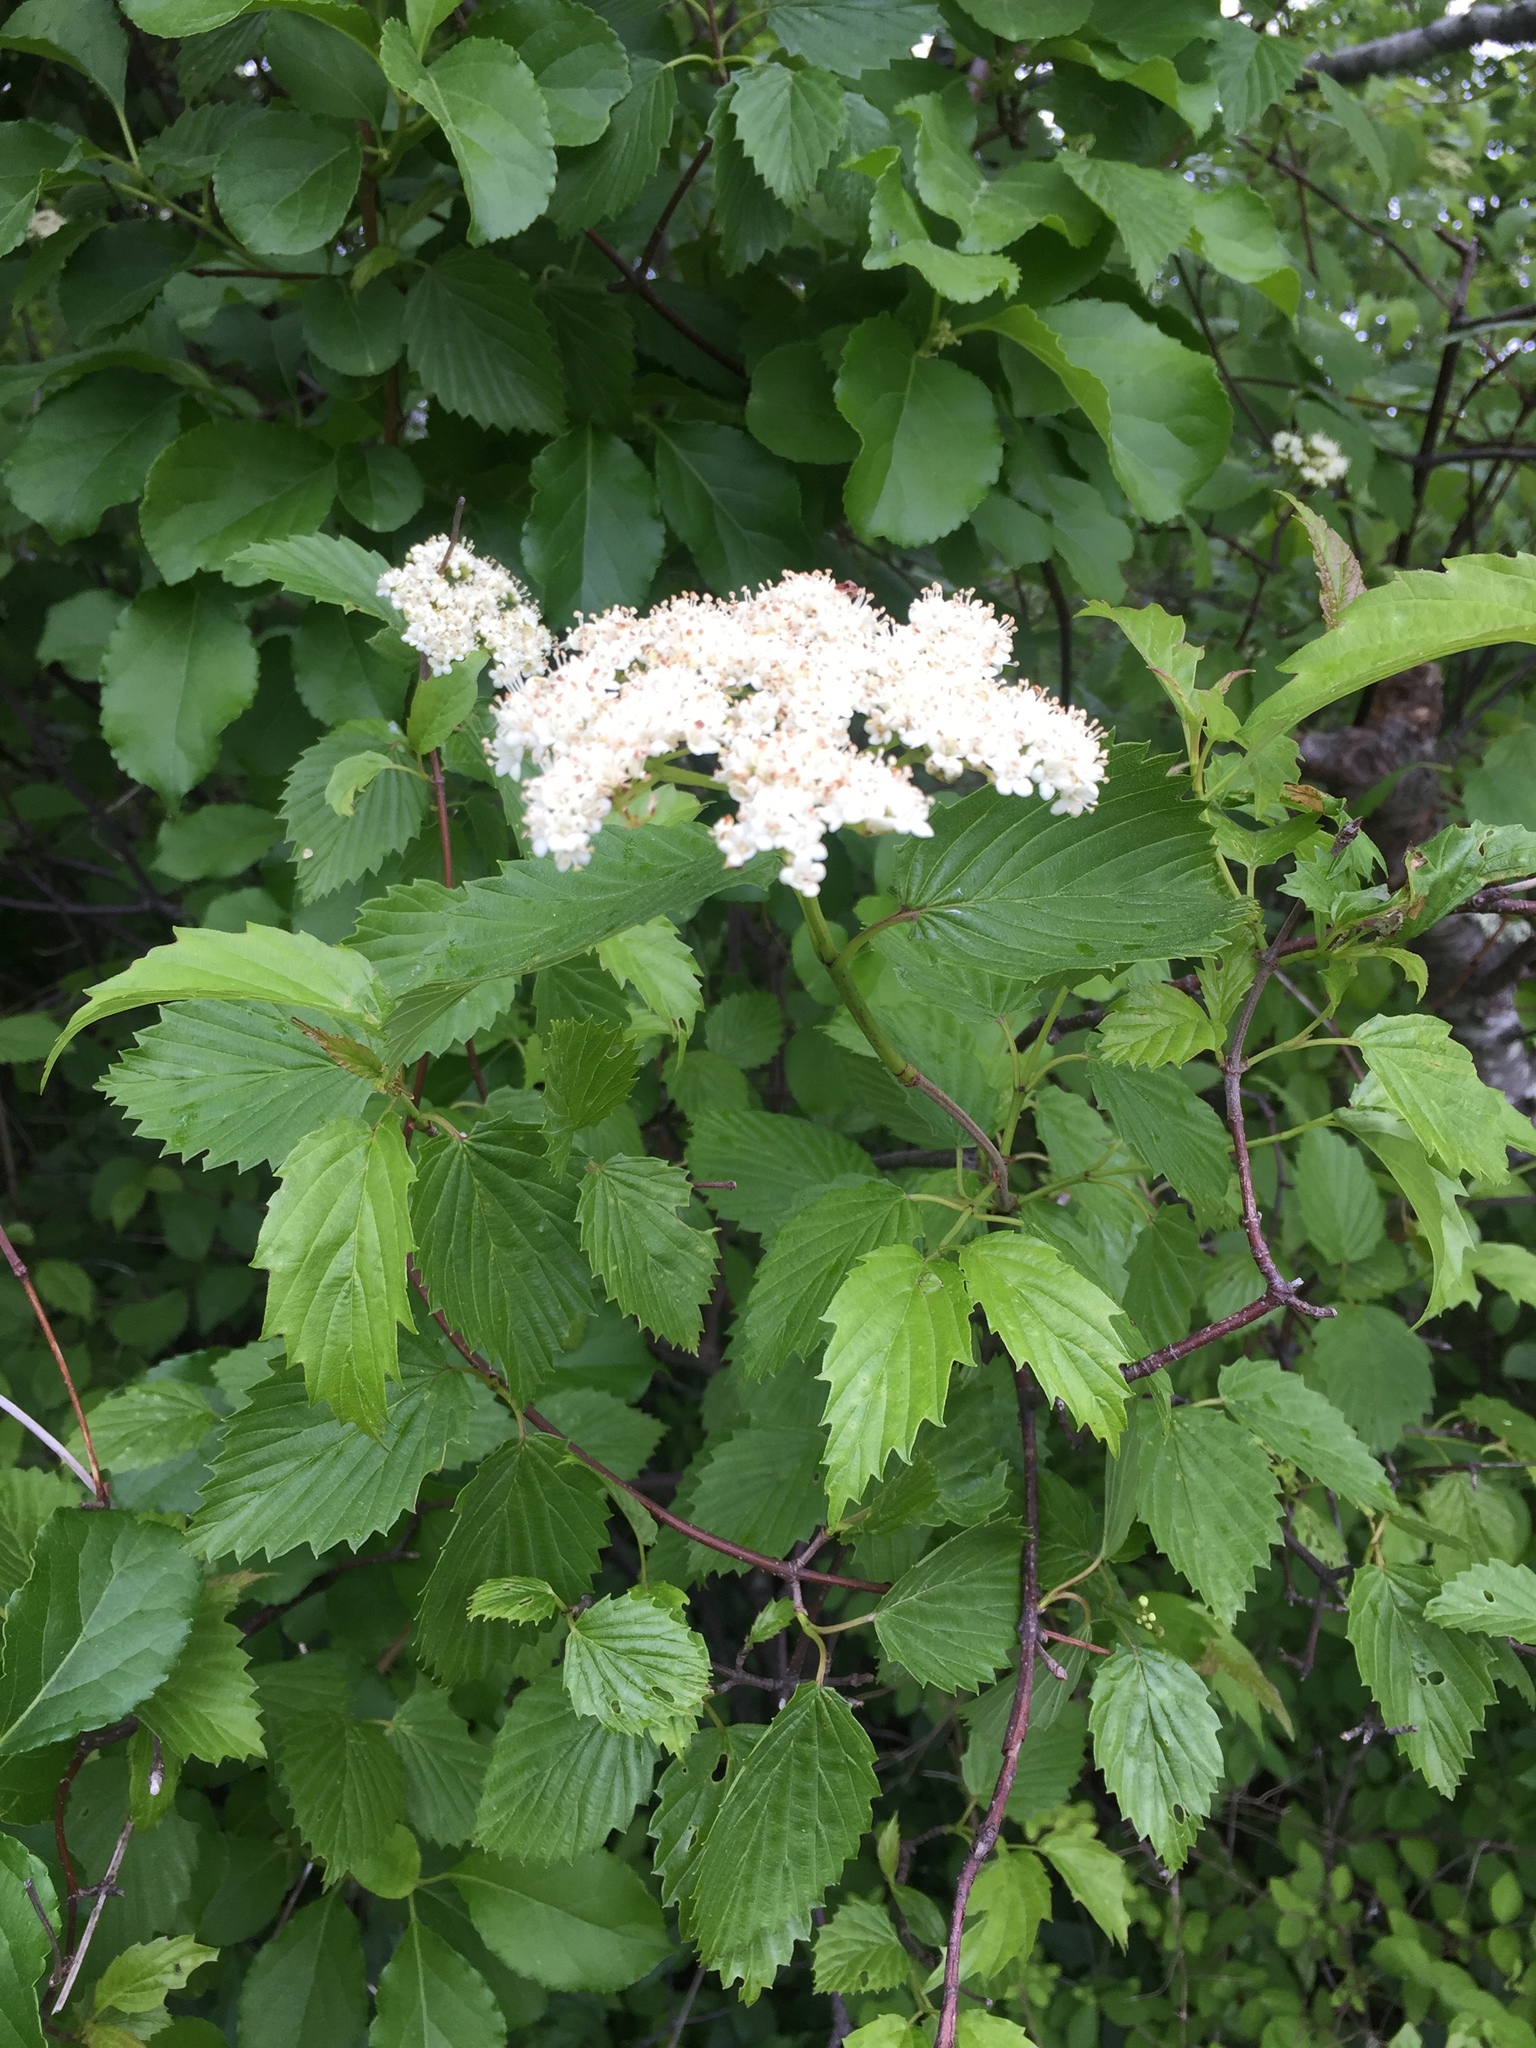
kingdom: Plantae
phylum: Tracheophyta
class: Magnoliopsida
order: Dipsacales
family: Viburnaceae
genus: Viburnum
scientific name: Viburnum dentatum
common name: Arrow-wood
